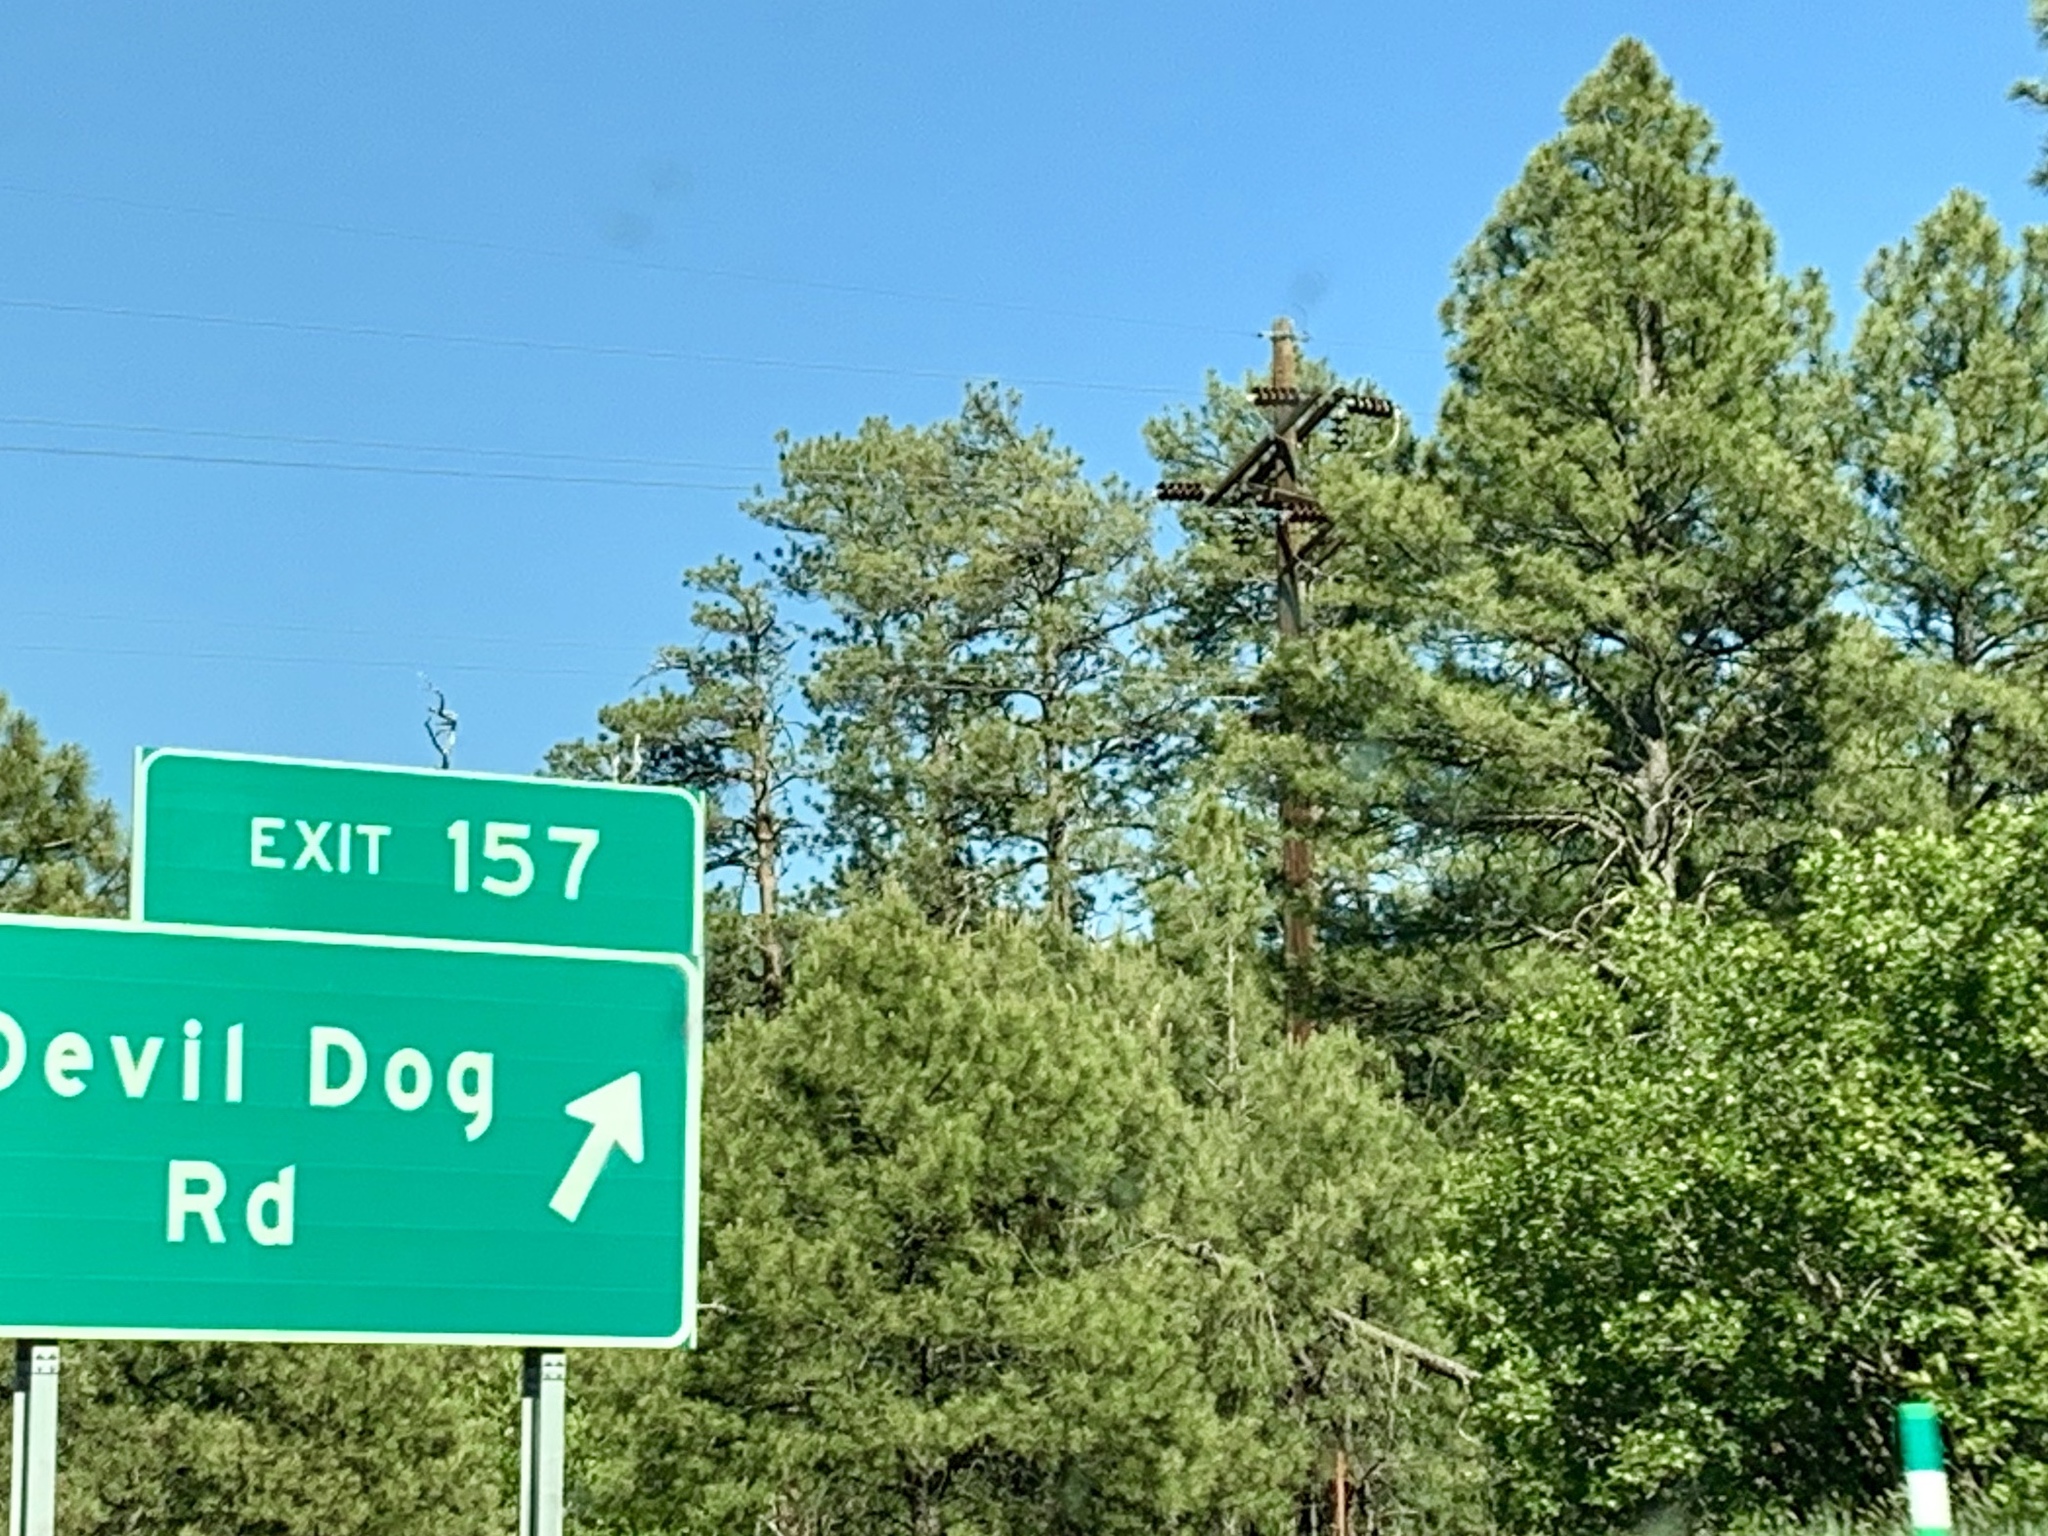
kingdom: Plantae
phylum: Tracheophyta
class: Pinopsida
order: Pinales
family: Pinaceae
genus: Pinus
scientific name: Pinus ponderosa
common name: Western yellow-pine
